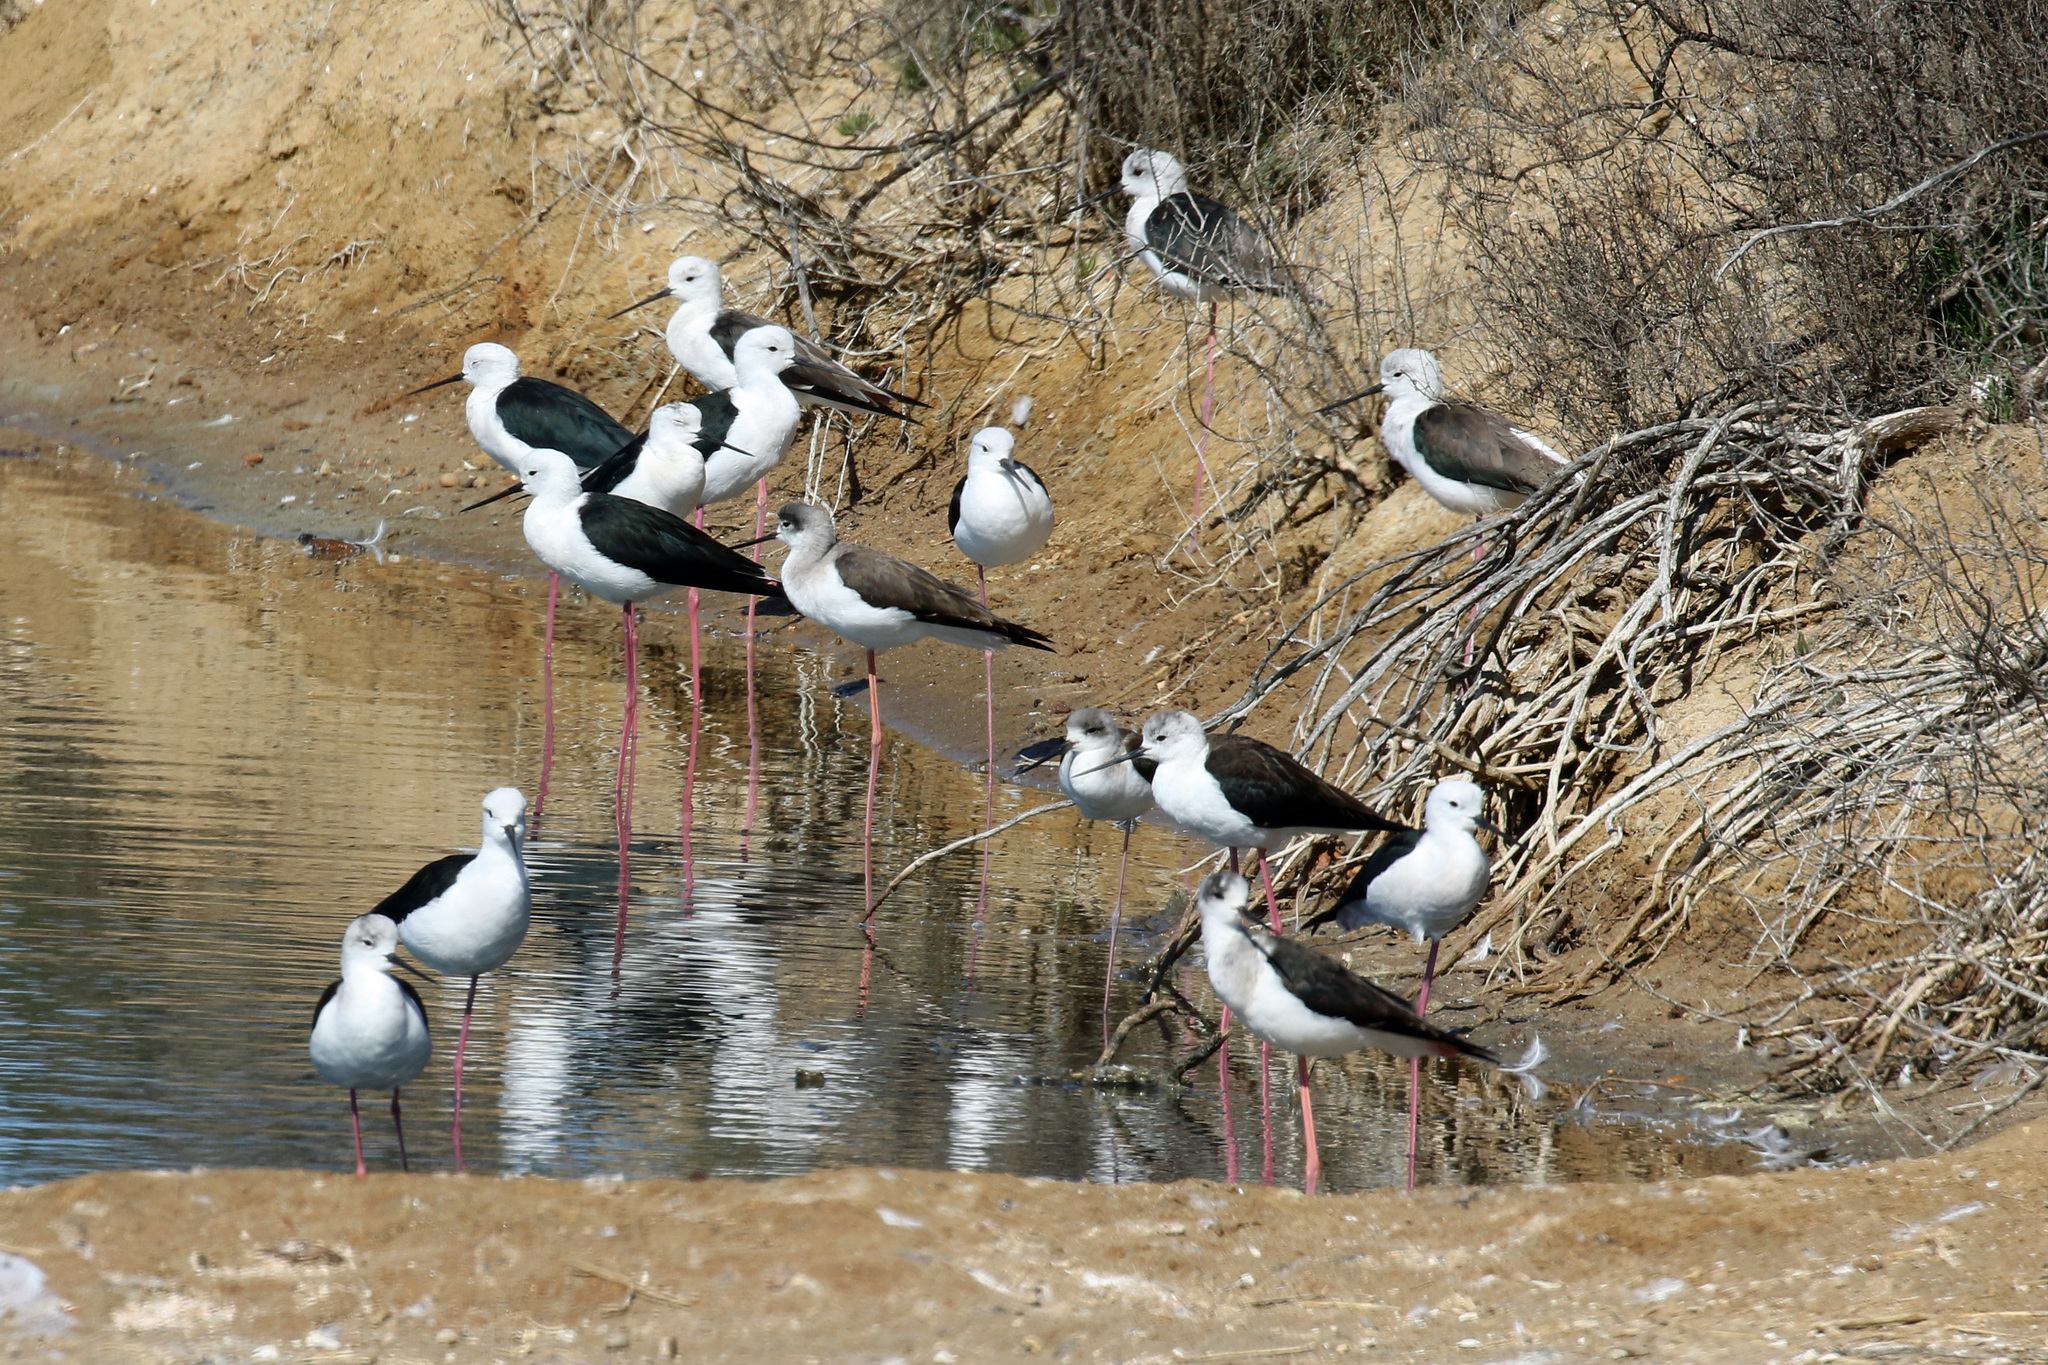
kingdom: Animalia
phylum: Chordata
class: Aves
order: Charadriiformes
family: Recurvirostridae
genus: Himantopus
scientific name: Himantopus himantopus
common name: Black-winged stilt
